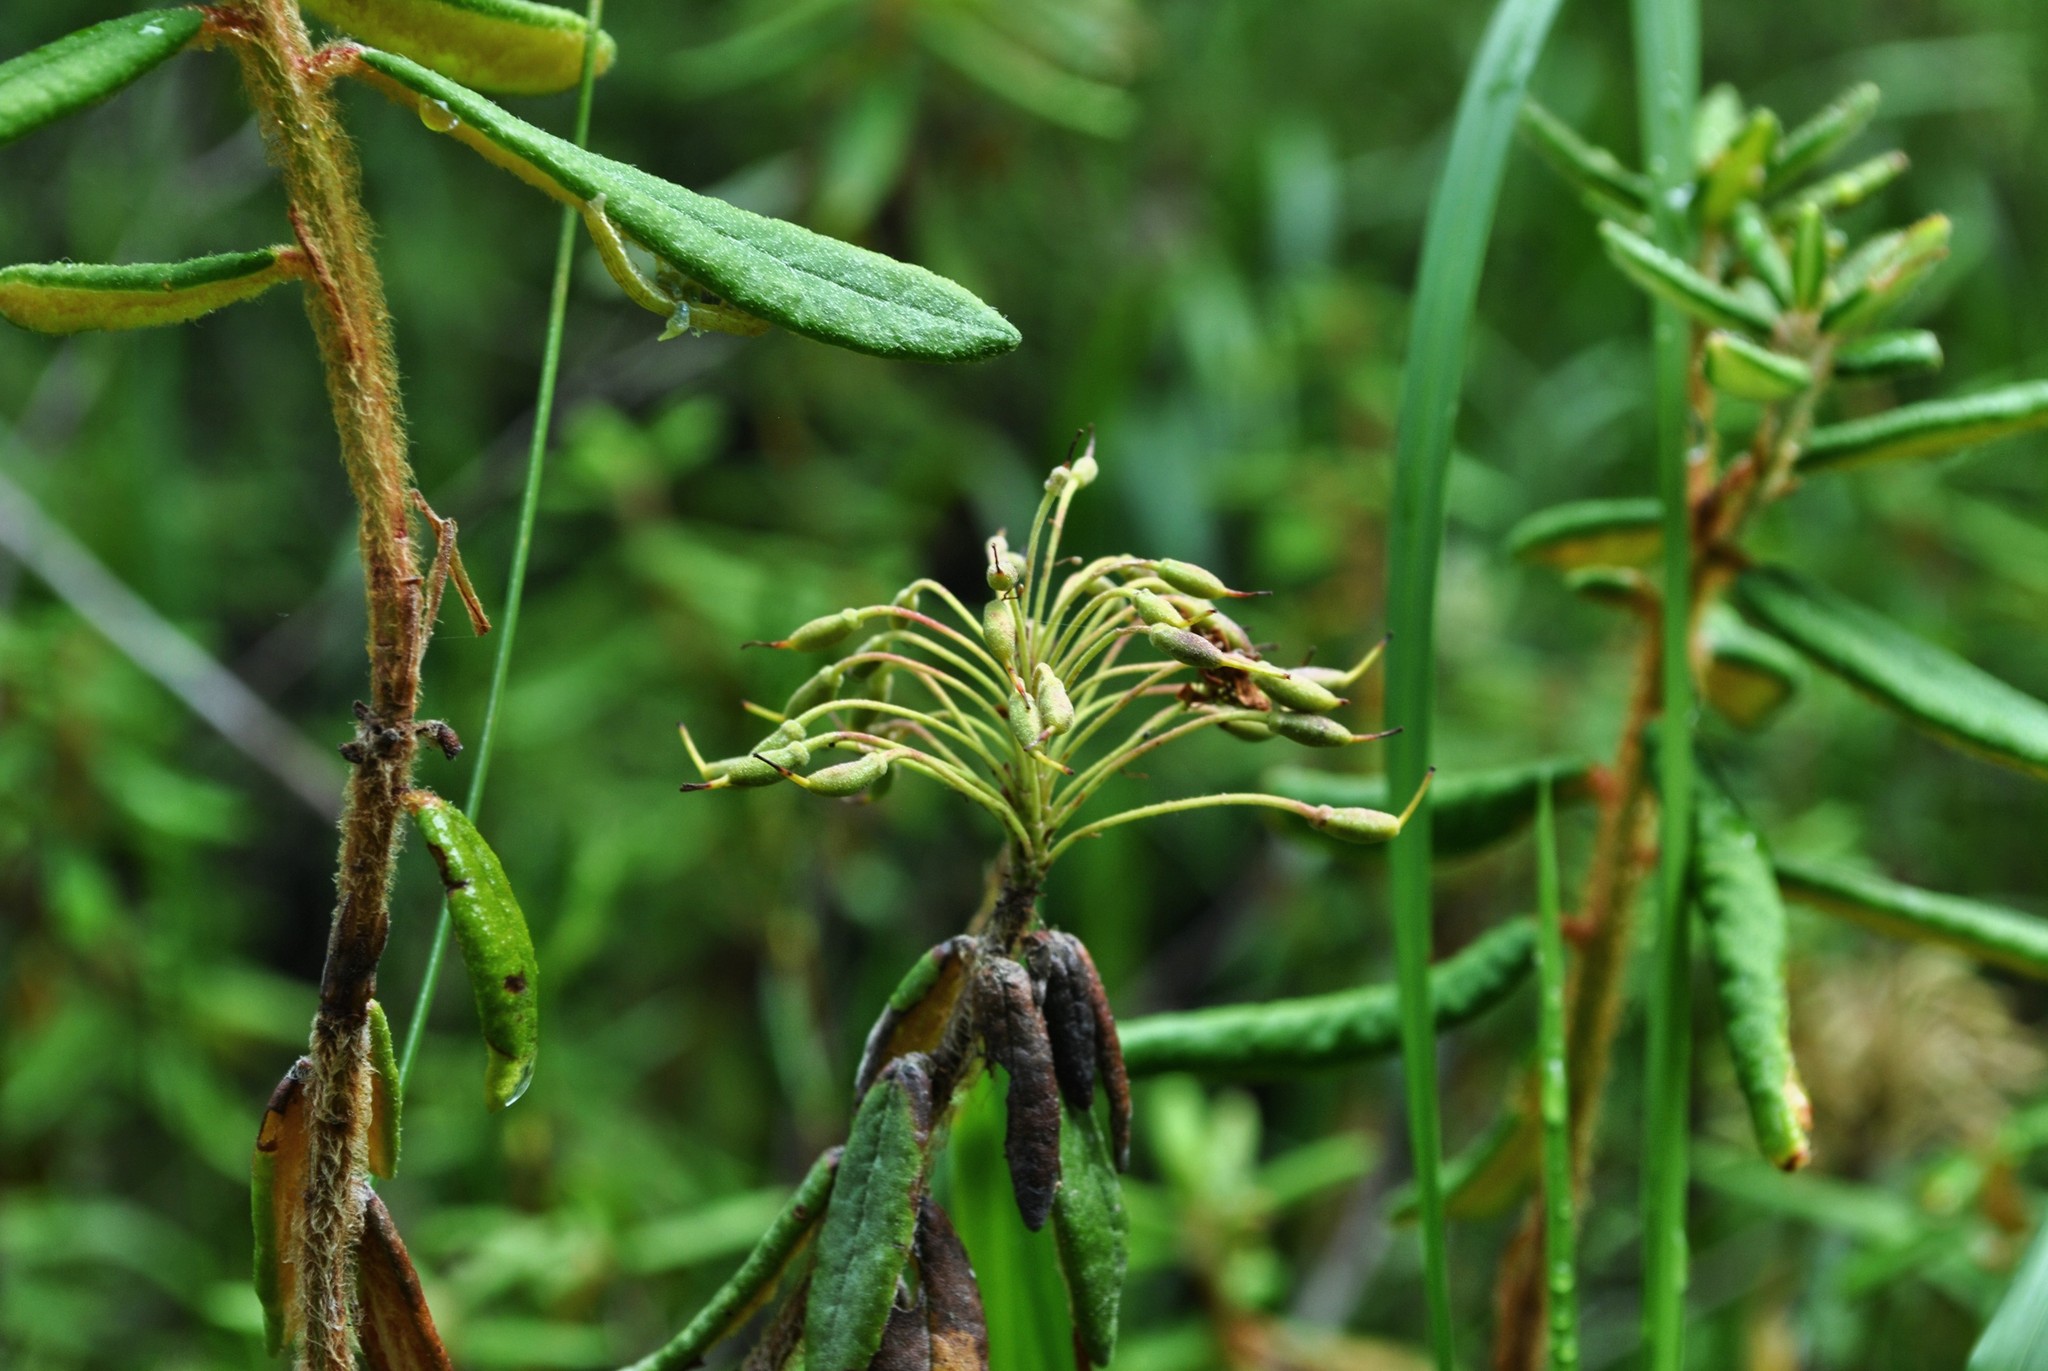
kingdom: Plantae
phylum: Tracheophyta
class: Magnoliopsida
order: Ericales
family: Ericaceae
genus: Rhododendron
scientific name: Rhododendron groenlandicum
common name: Bog labrador tea
